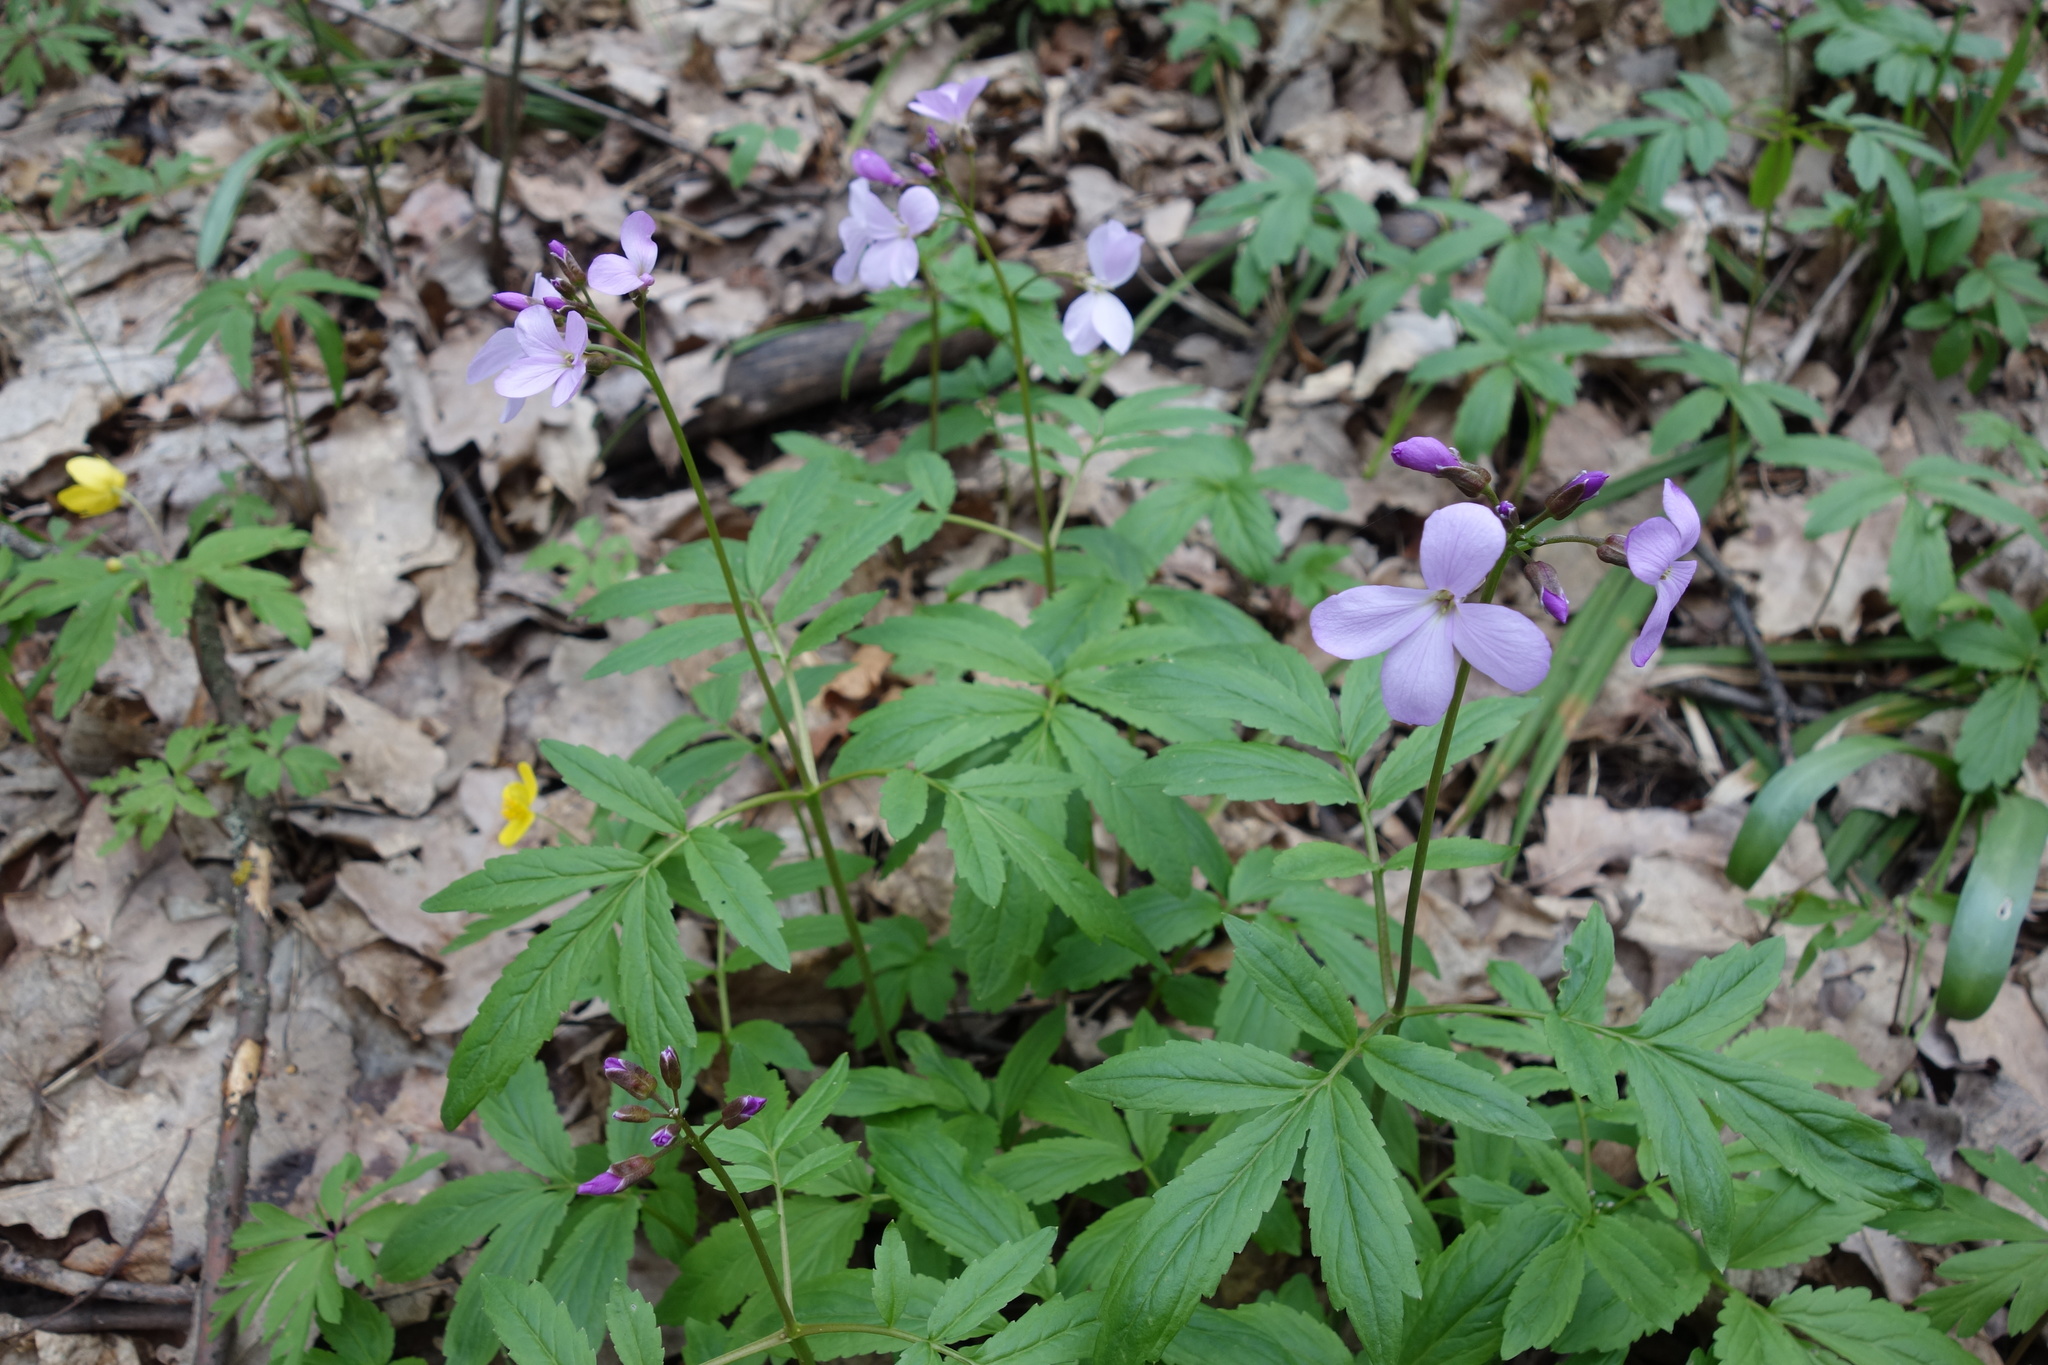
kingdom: Plantae
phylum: Tracheophyta
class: Magnoliopsida
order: Brassicales
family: Brassicaceae
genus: Cardamine
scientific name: Cardamine quinquefolia
